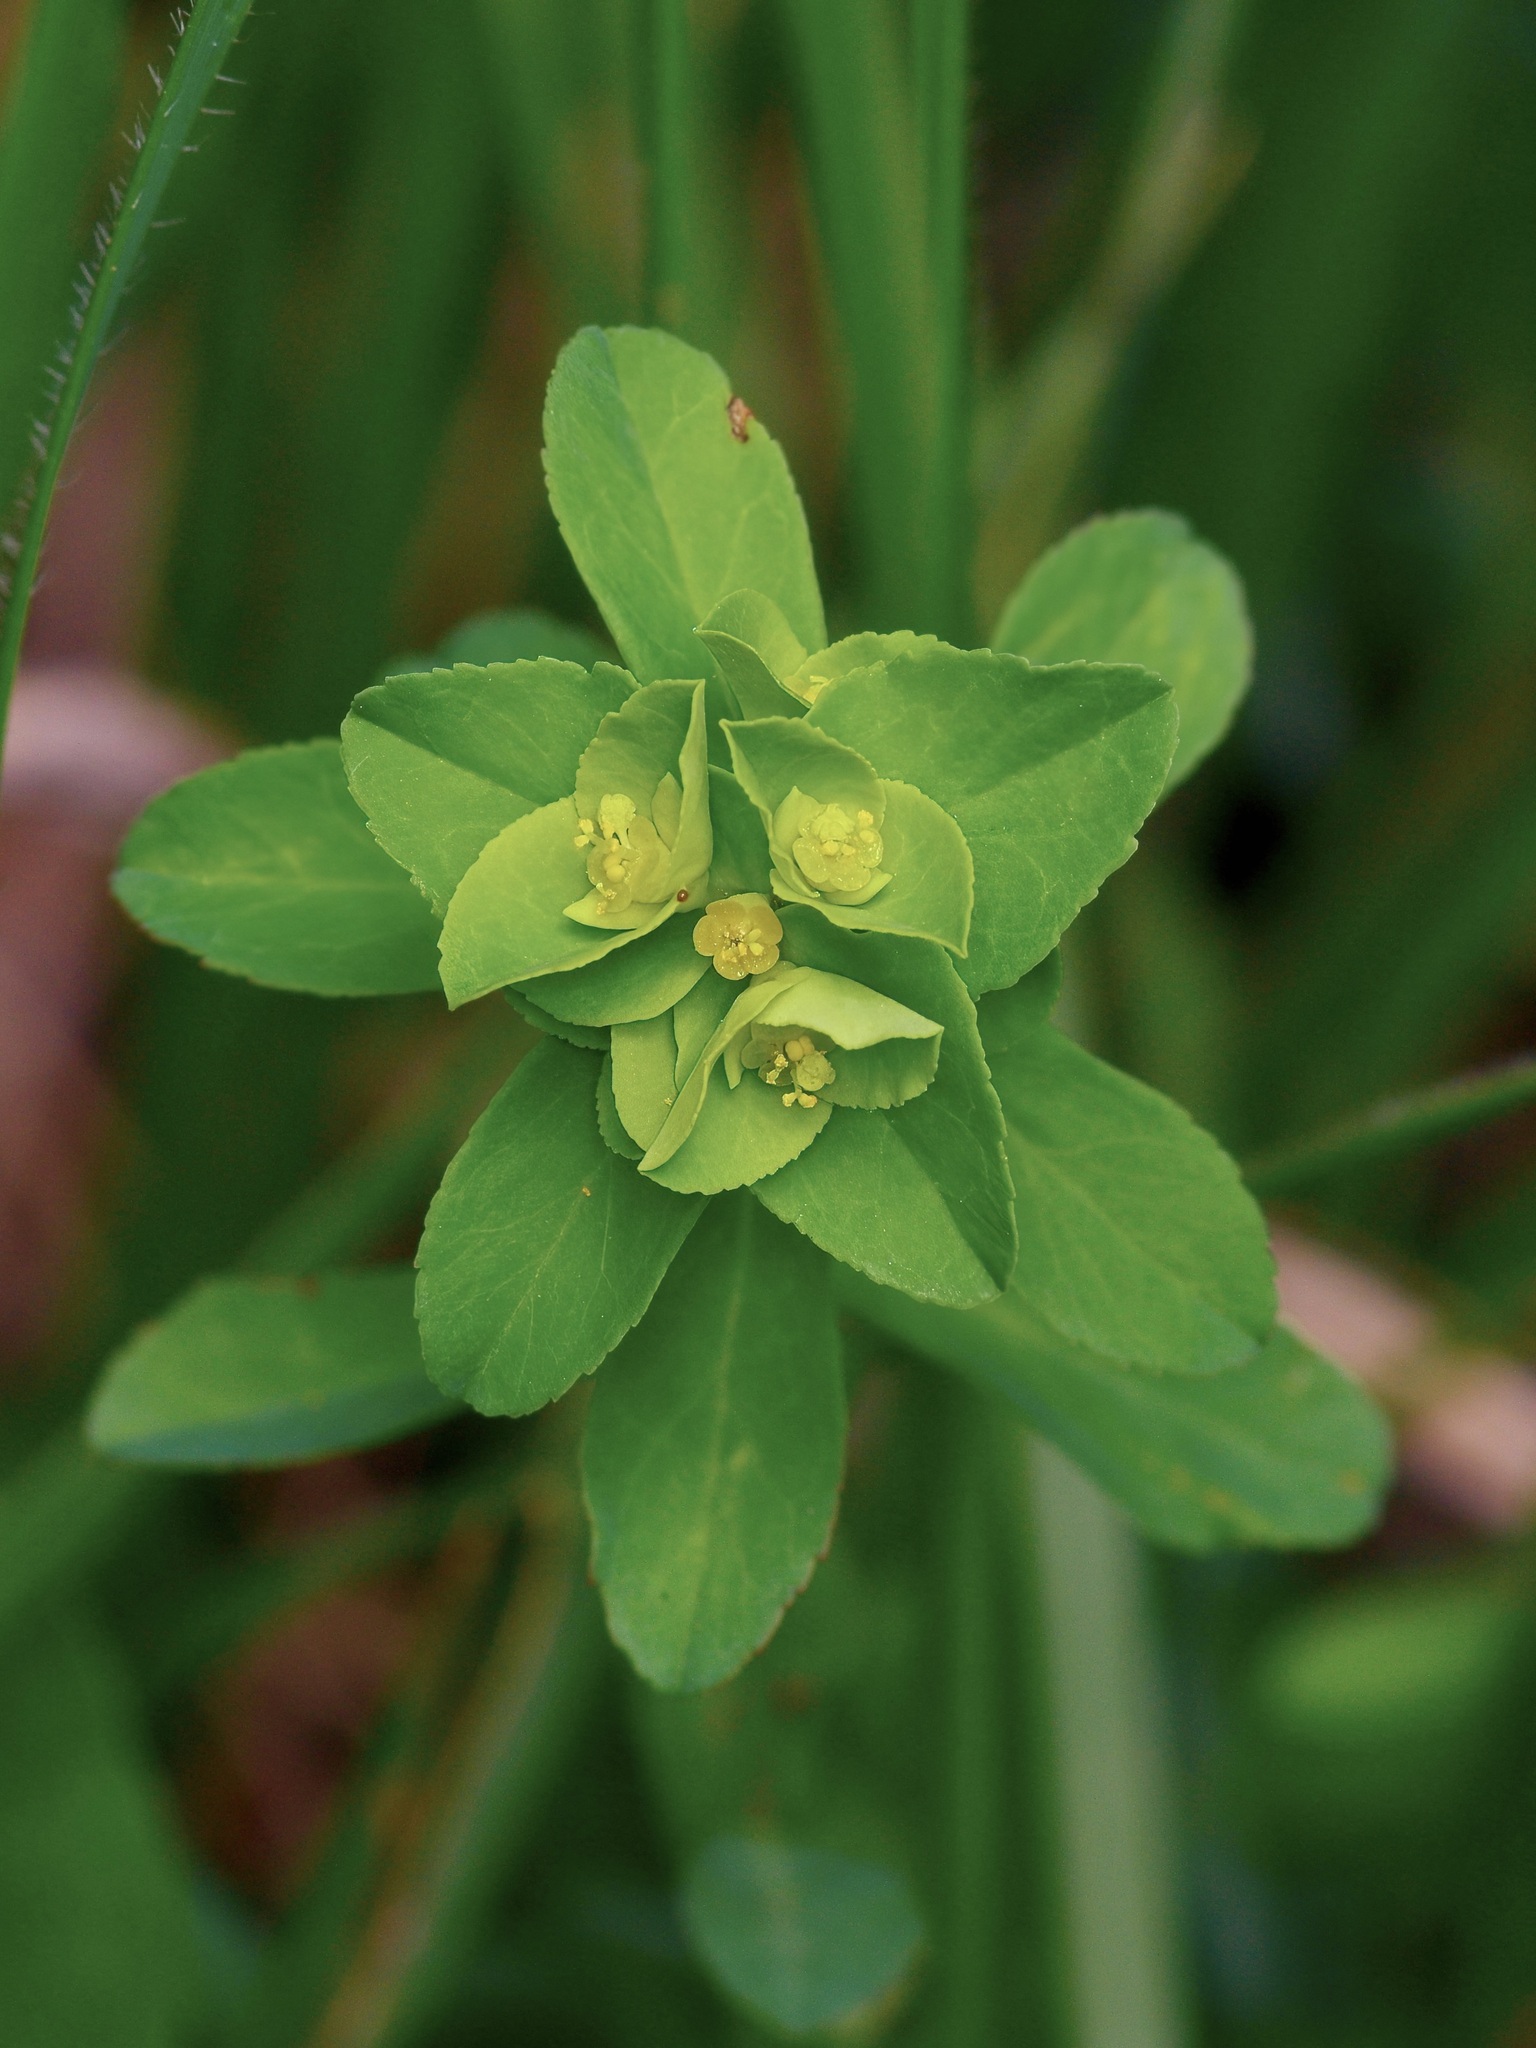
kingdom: Plantae
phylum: Tracheophyta
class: Magnoliopsida
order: Malpighiales
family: Euphorbiaceae
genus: Euphorbia
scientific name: Euphorbia spathulata
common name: Blunt spurge
